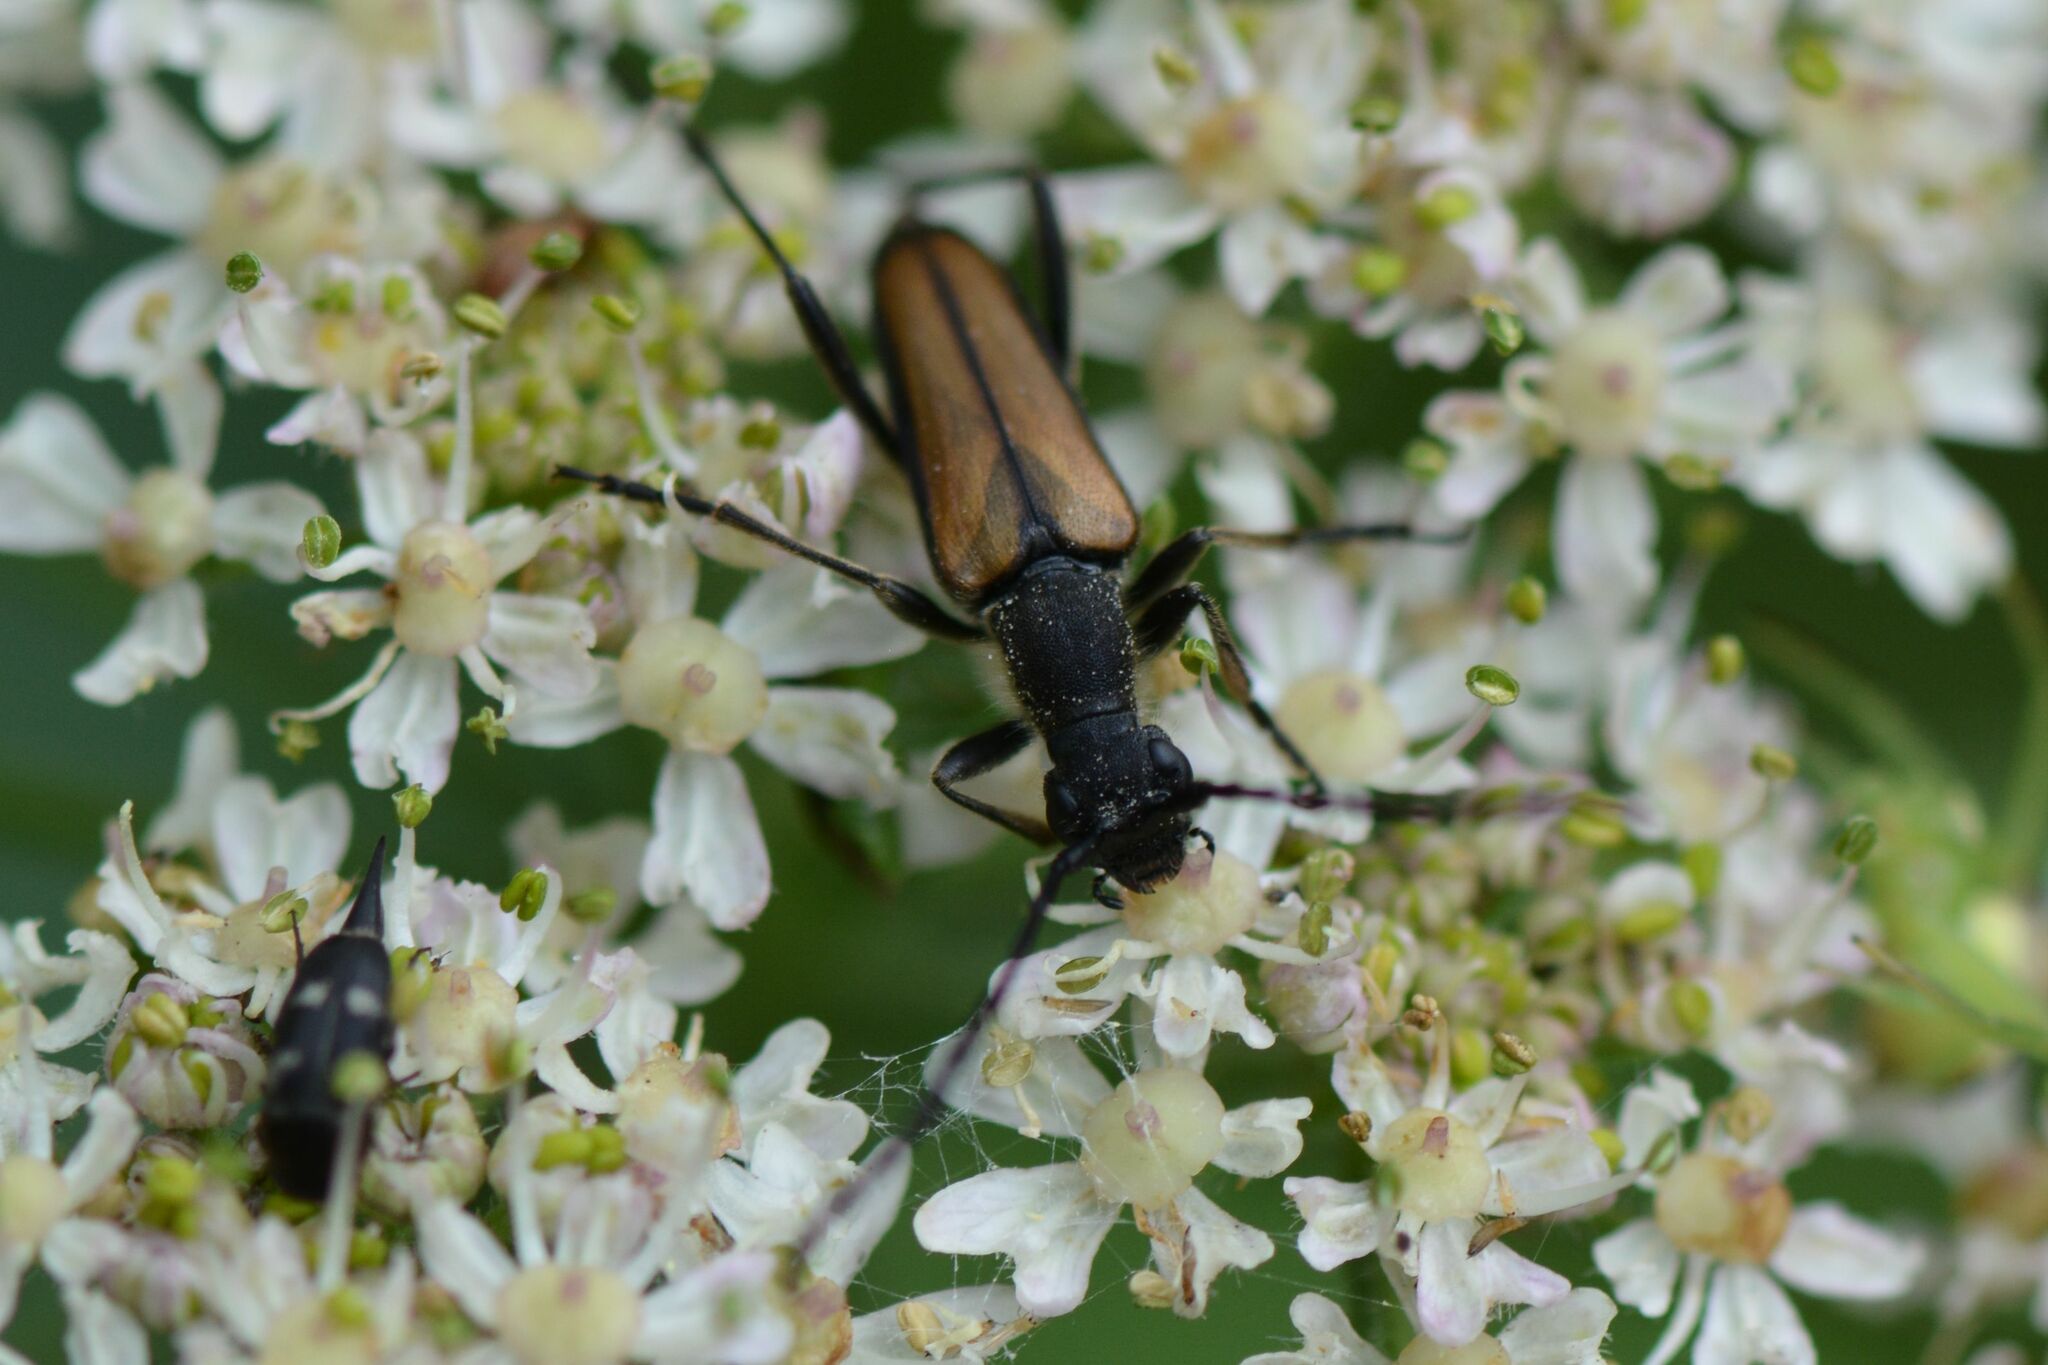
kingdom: Animalia
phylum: Arthropoda
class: Insecta
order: Coleoptera
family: Cerambycidae
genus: Anastrangalia
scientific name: Anastrangalia dubia
